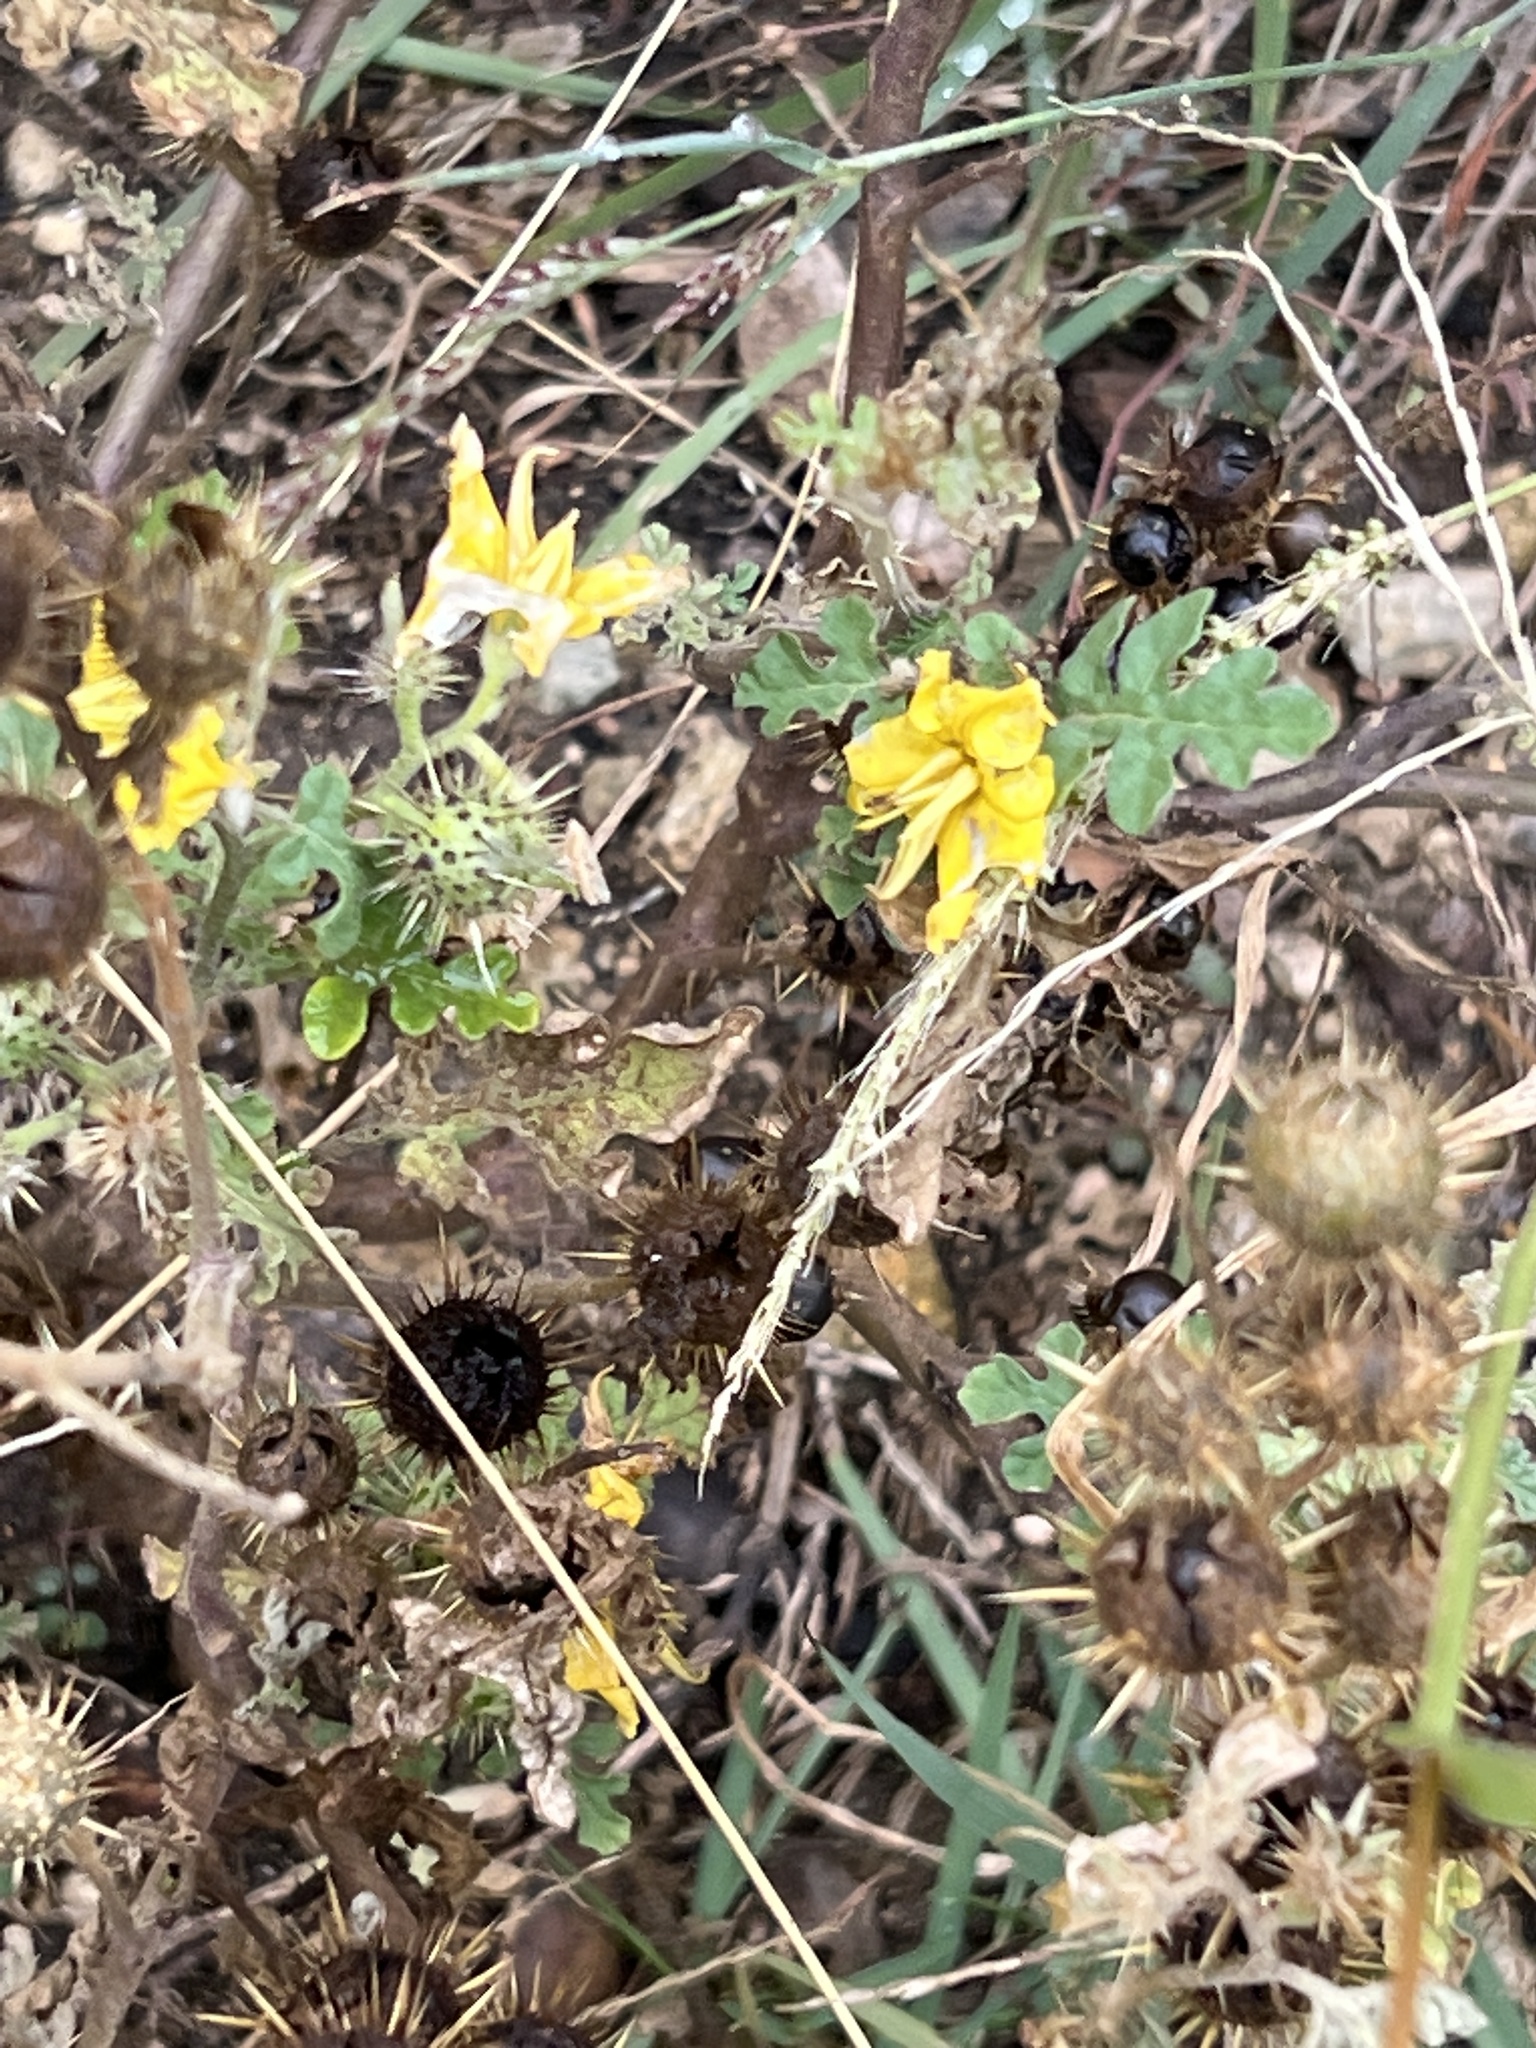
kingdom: Plantae
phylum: Tracheophyta
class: Magnoliopsida
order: Solanales
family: Solanaceae
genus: Solanum
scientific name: Solanum angustifolium
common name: Buffalobur nightshade
